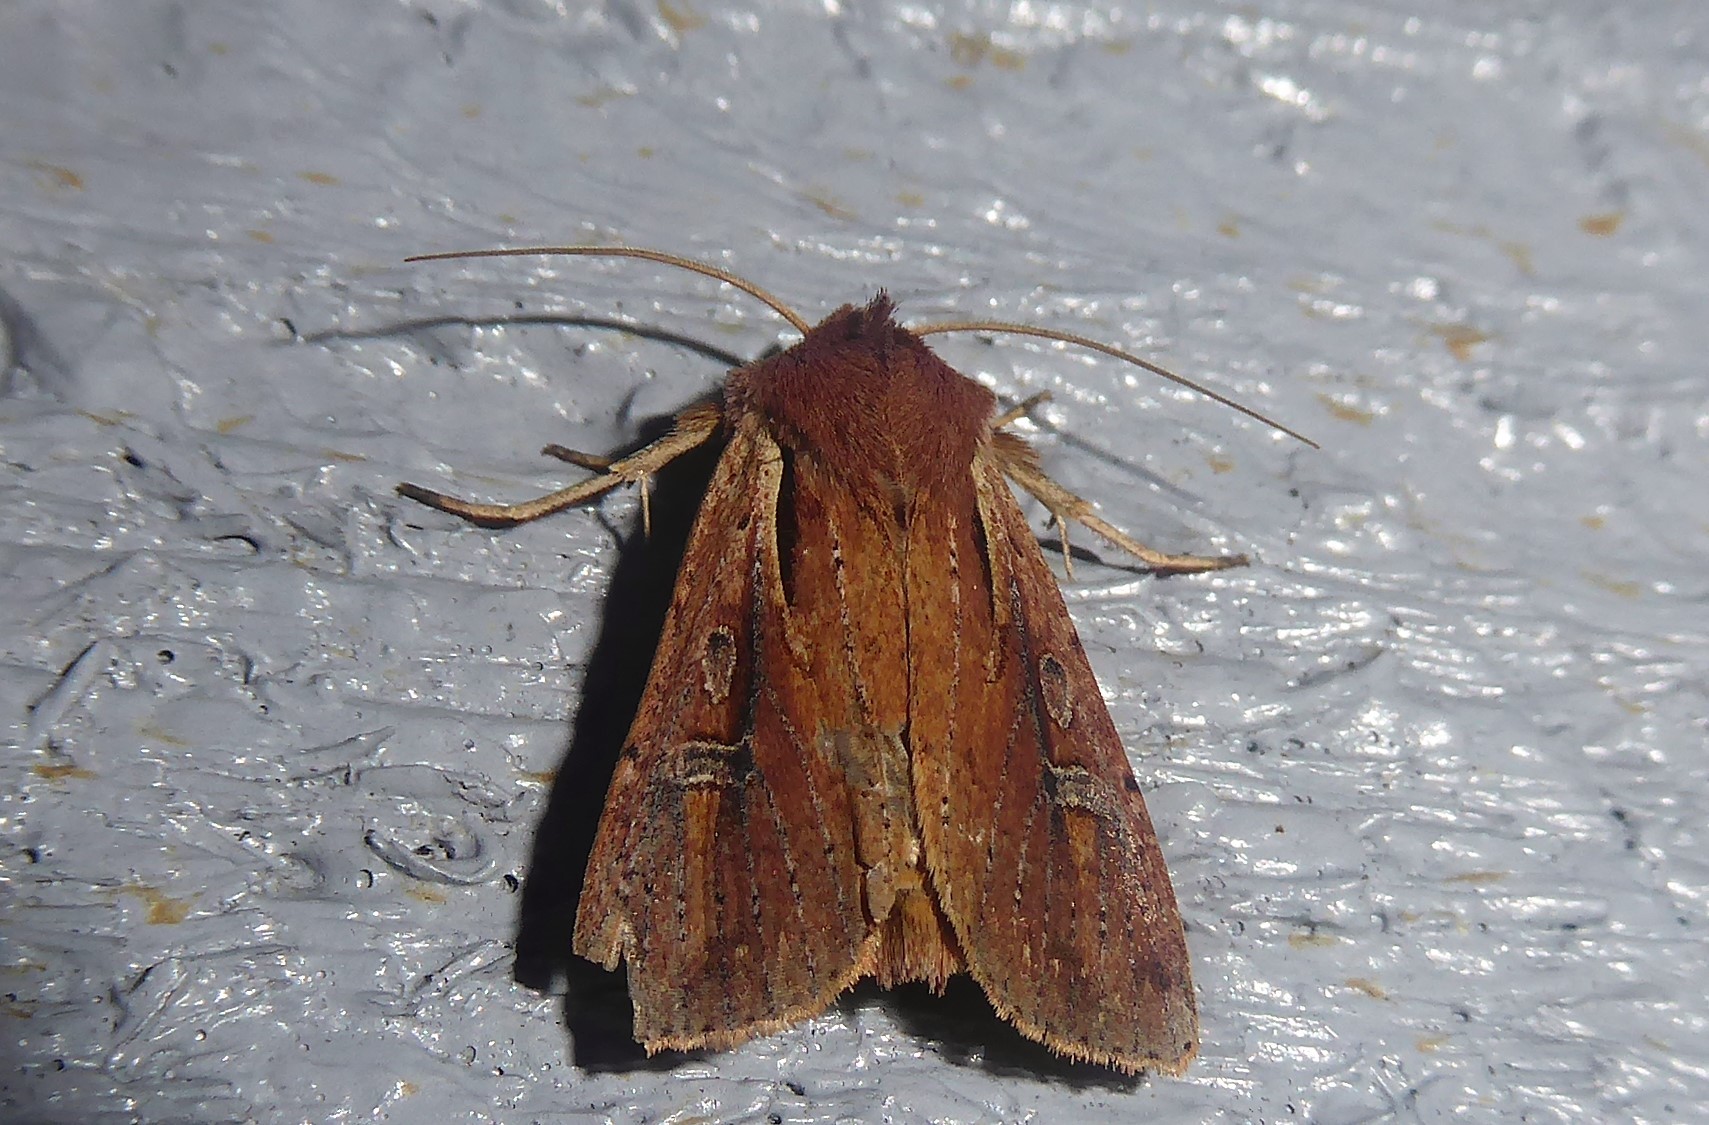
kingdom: Animalia
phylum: Arthropoda
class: Insecta
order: Lepidoptera
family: Noctuidae
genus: Ichneutica
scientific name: Ichneutica atristriga
